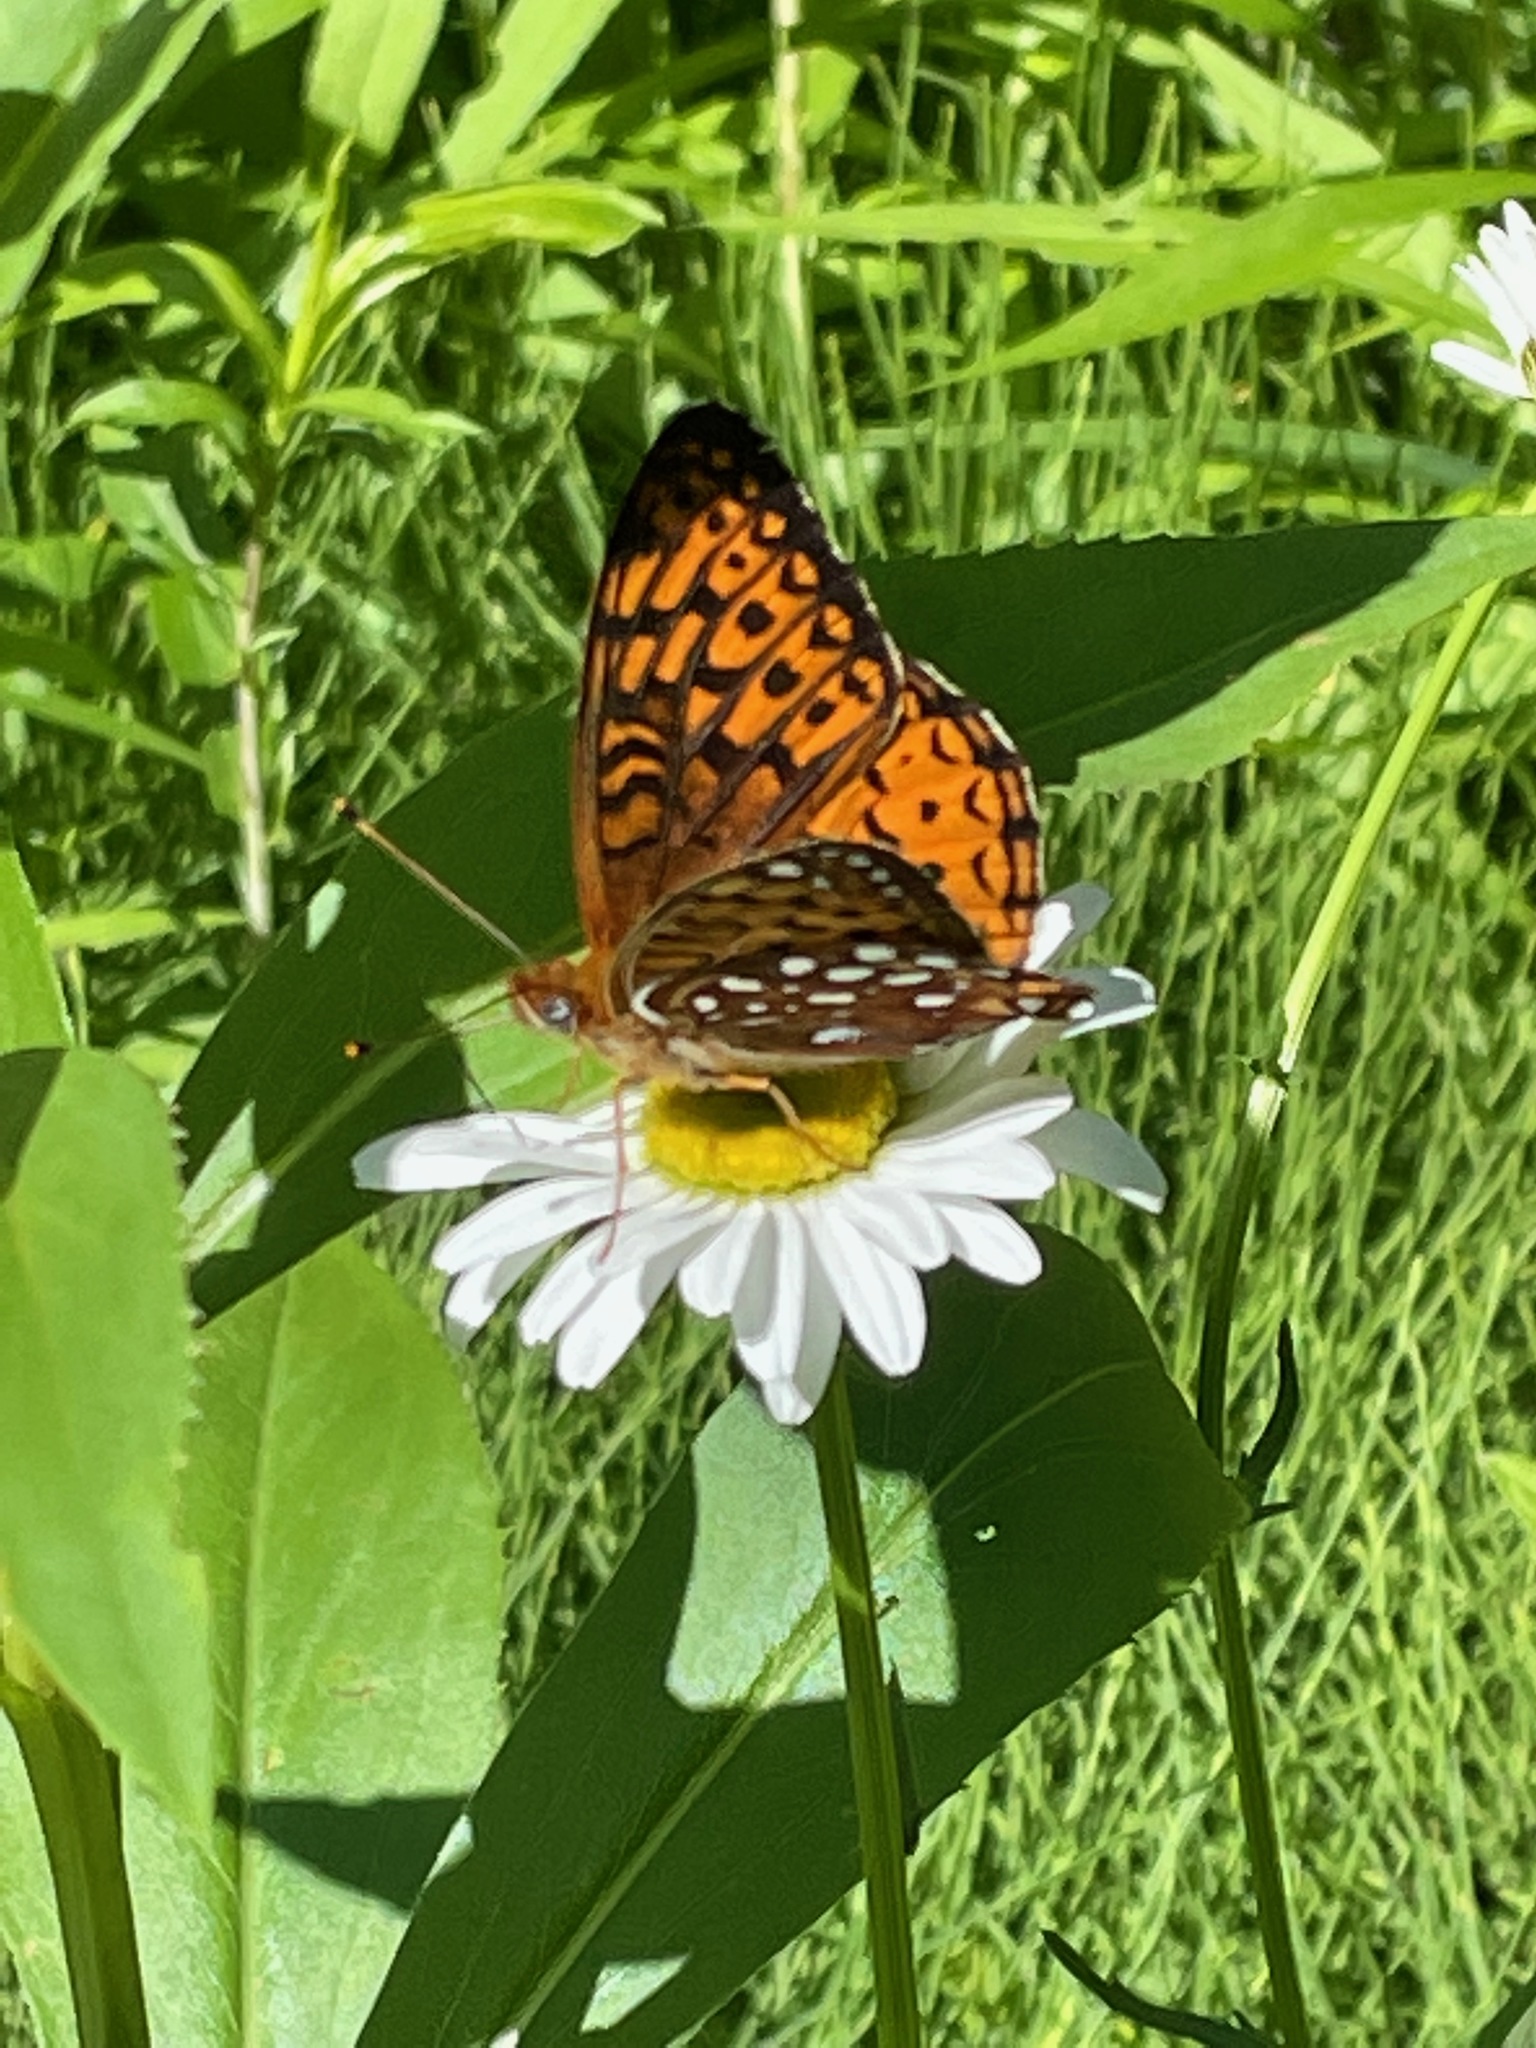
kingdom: Animalia
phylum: Arthropoda
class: Insecta
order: Lepidoptera
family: Nymphalidae
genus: Speyeria
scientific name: Speyeria atlantis
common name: Atlantis fritillary
